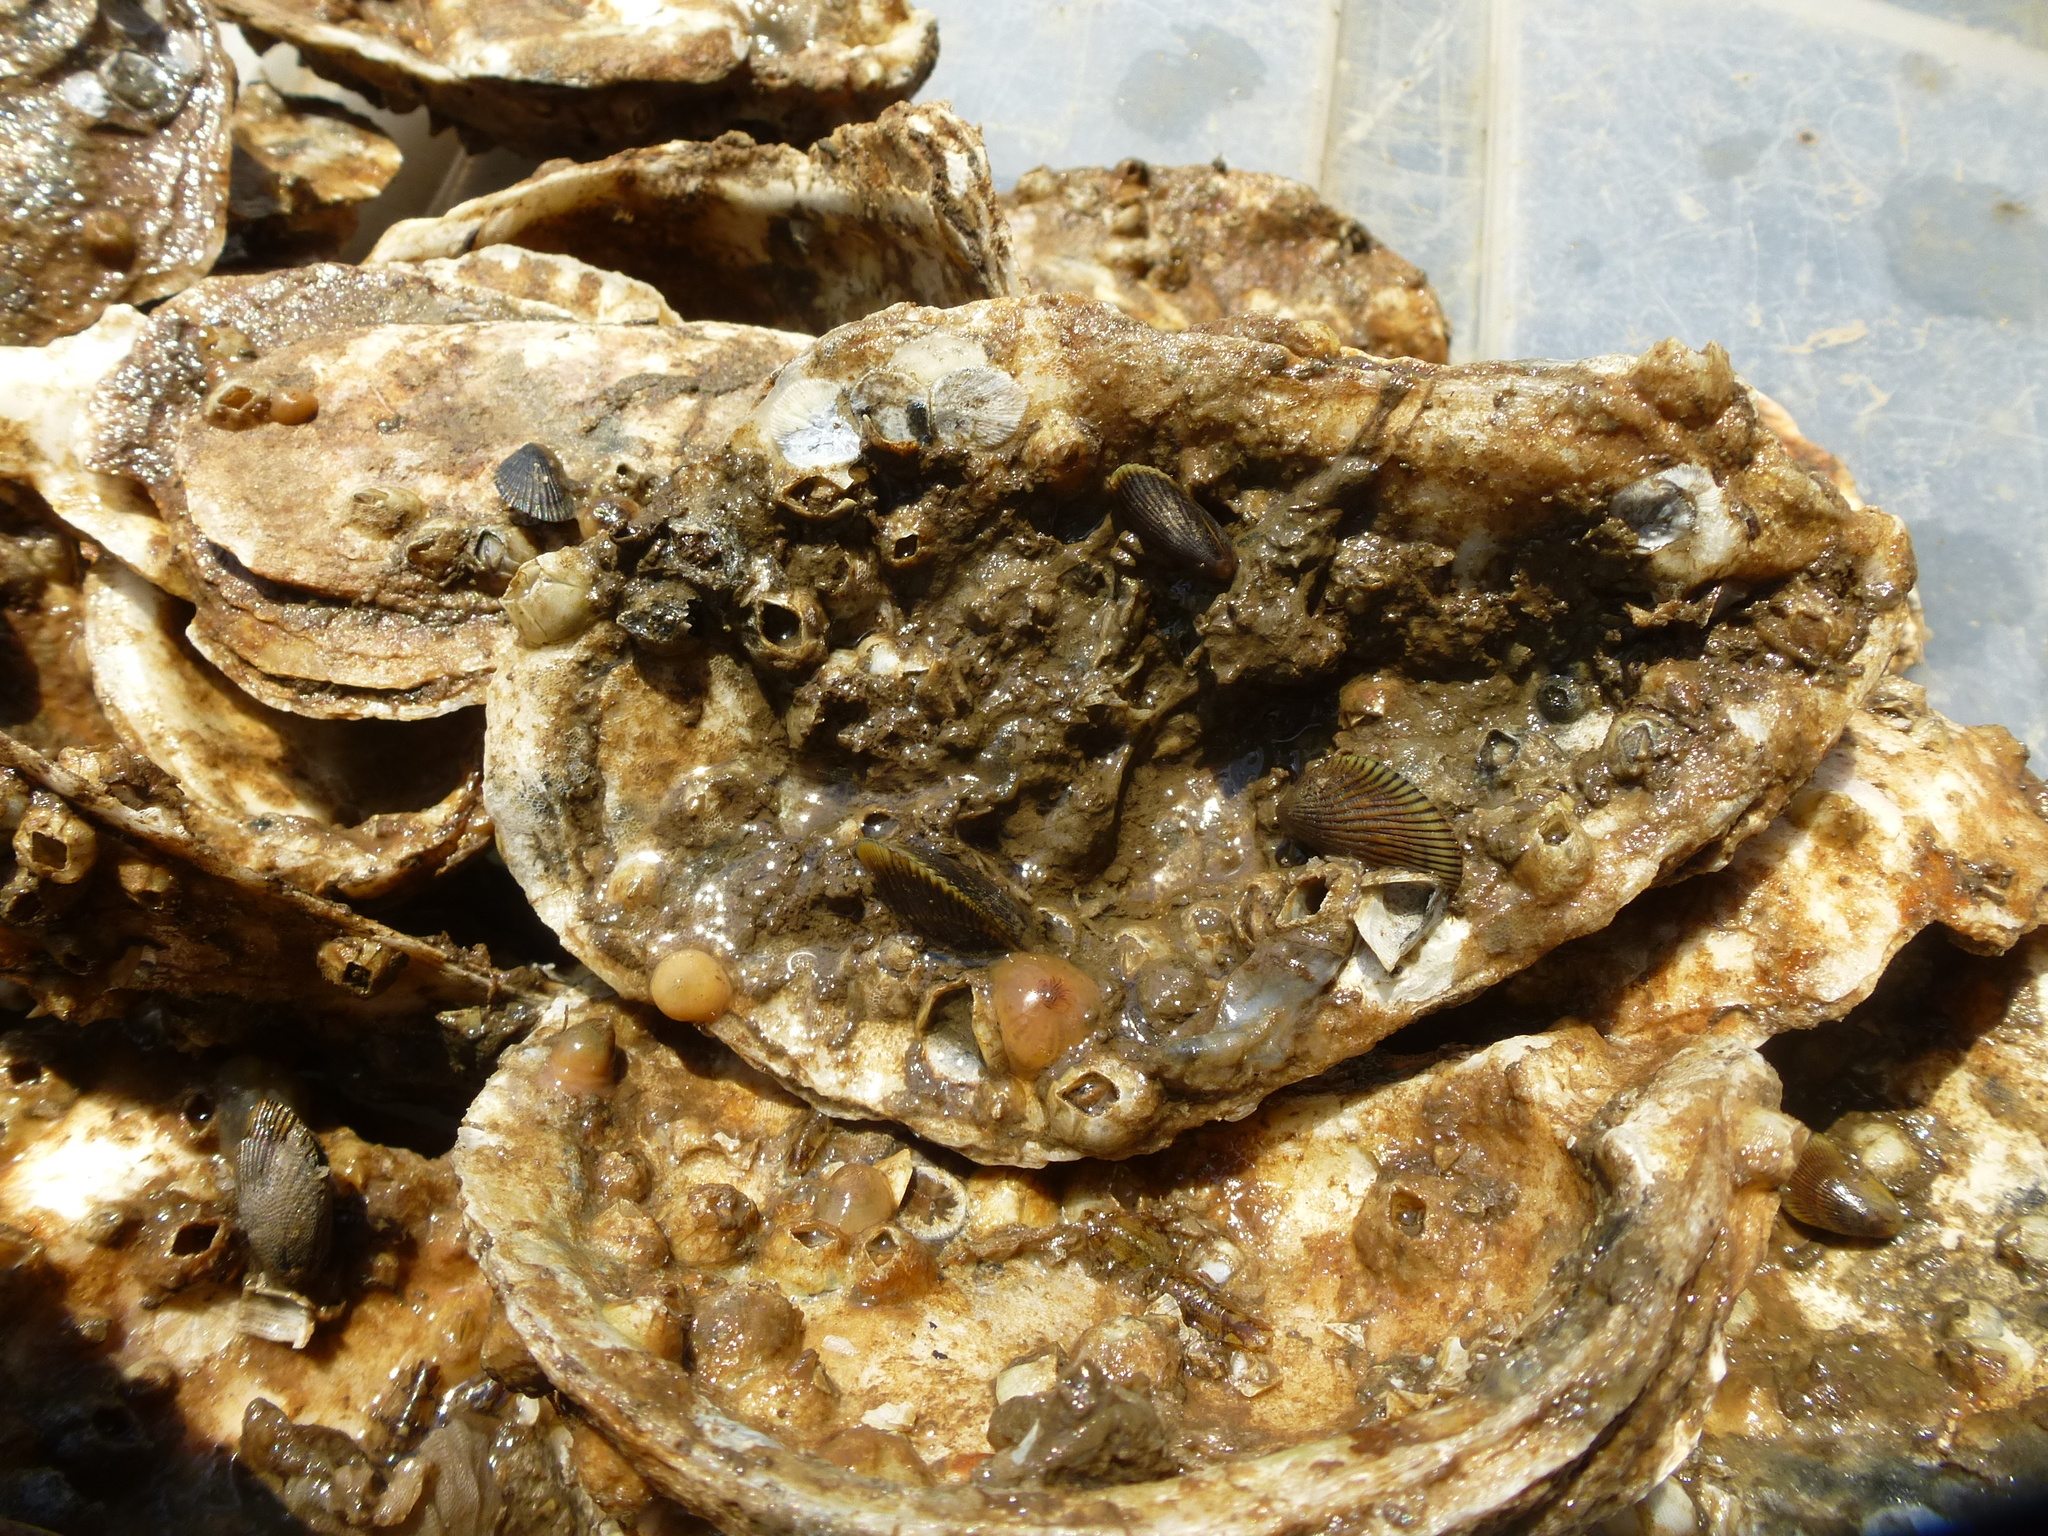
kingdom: Animalia
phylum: Mollusca
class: Bivalvia
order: Mytilida
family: Mytilidae
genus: Geukensia
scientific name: Geukensia demissa
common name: Ribbed mussel
